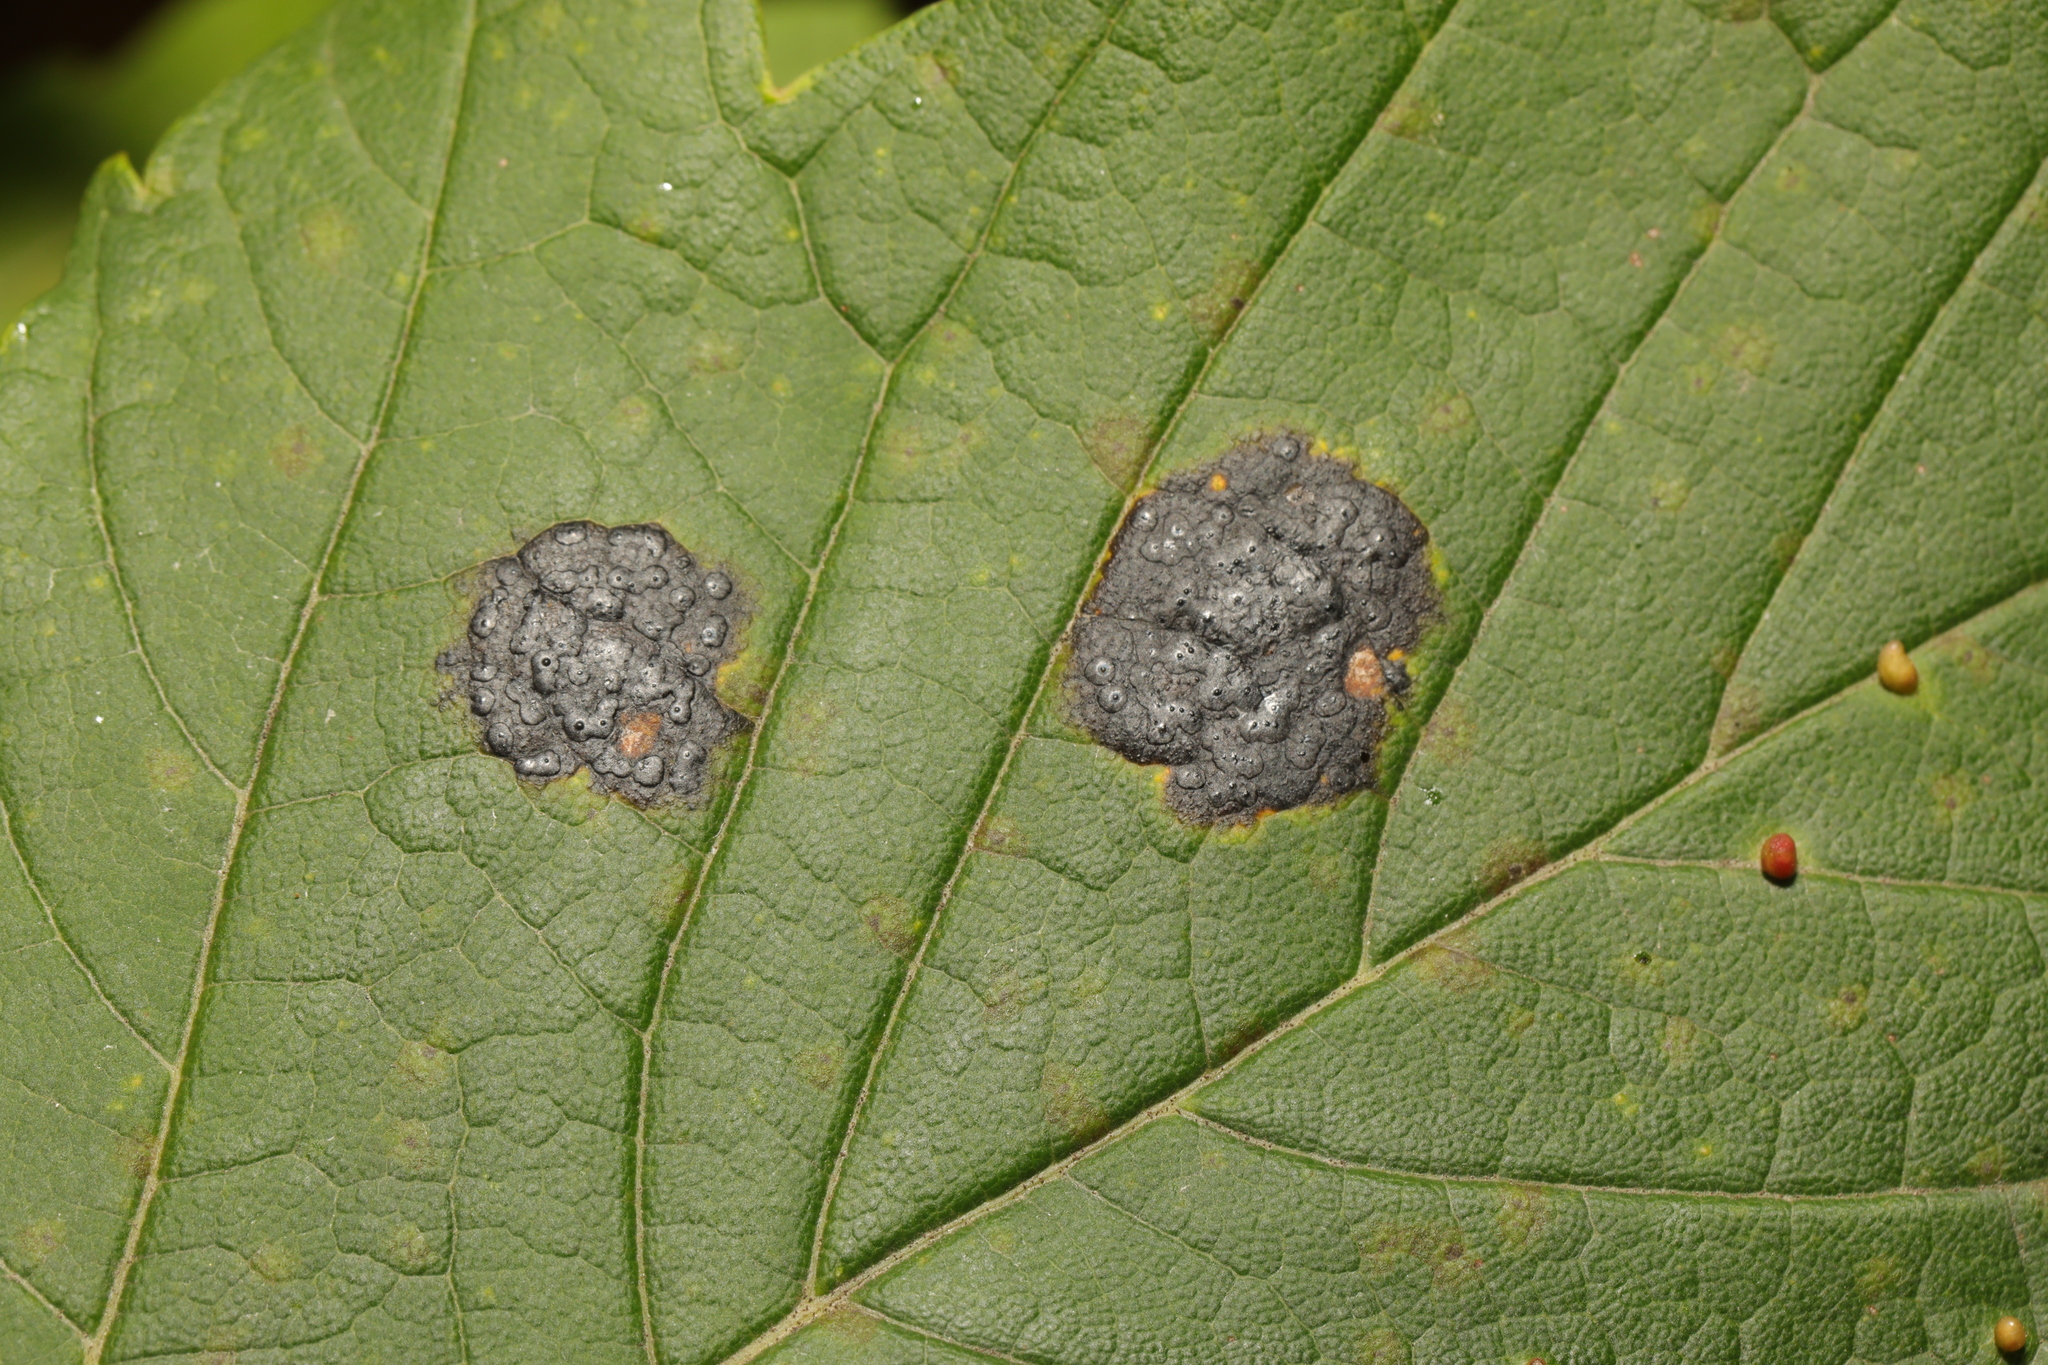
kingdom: Fungi
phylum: Ascomycota
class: Leotiomycetes
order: Rhytismatales
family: Rhytismataceae
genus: Rhytisma
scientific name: Rhytisma acerinum
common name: European tar spot
